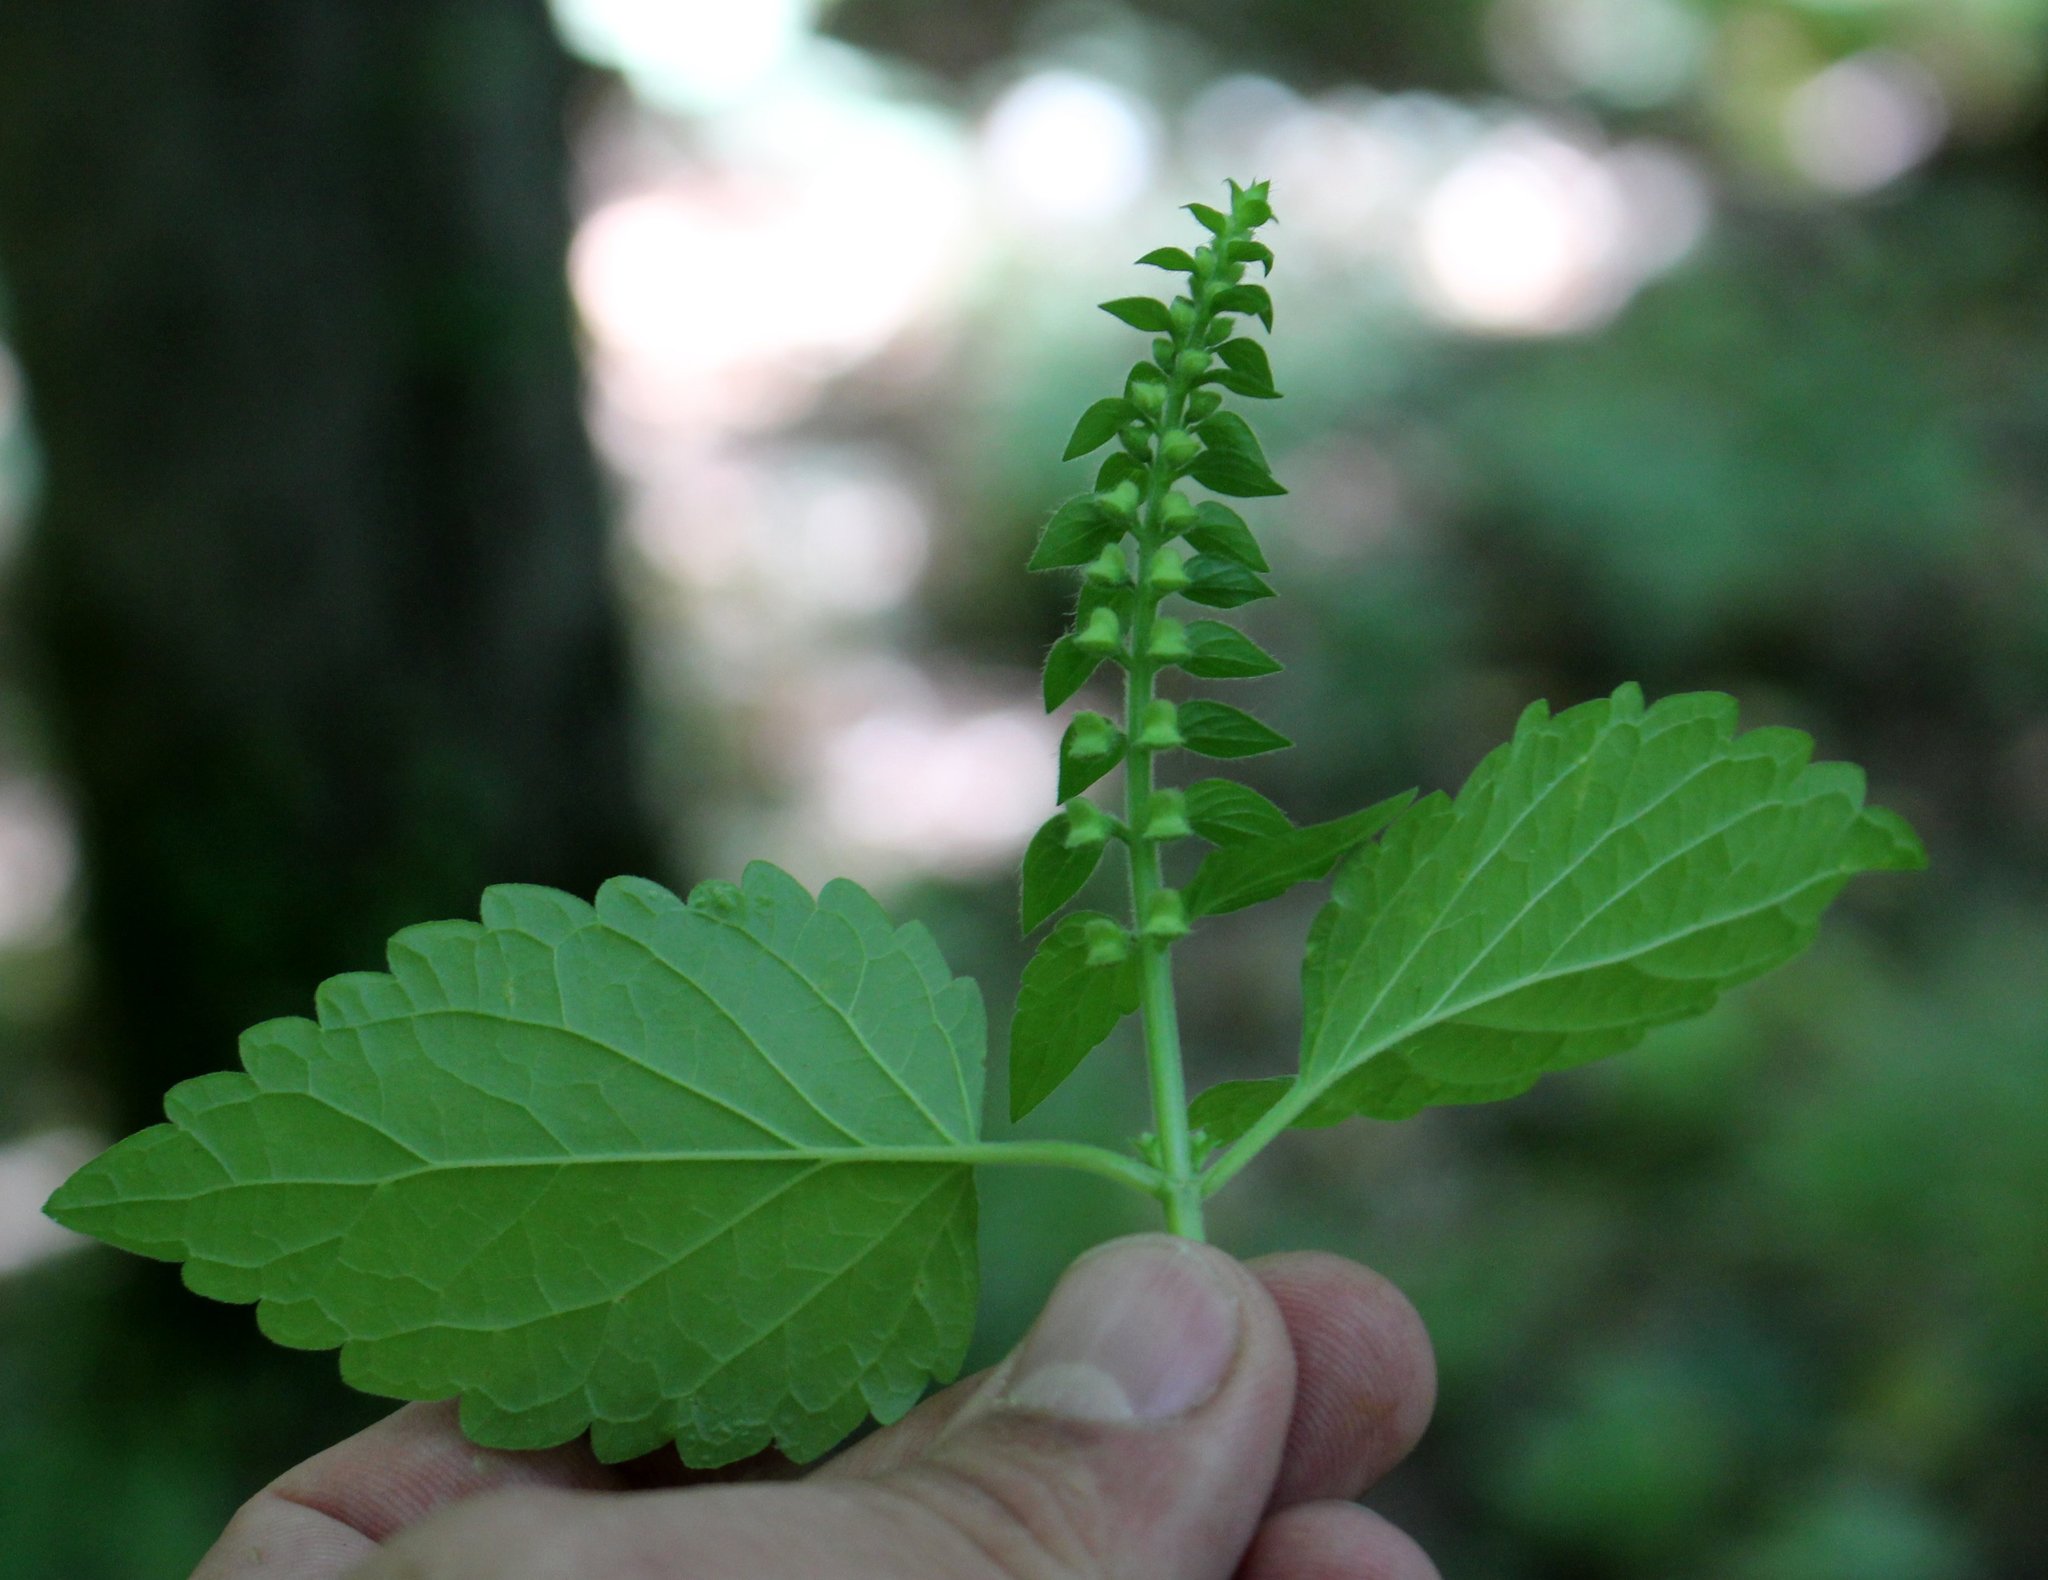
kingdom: Plantae
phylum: Tracheophyta
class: Magnoliopsida
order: Lamiales
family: Lamiaceae
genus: Scutellaria
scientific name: Scutellaria altissima
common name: Somerset skullcap
